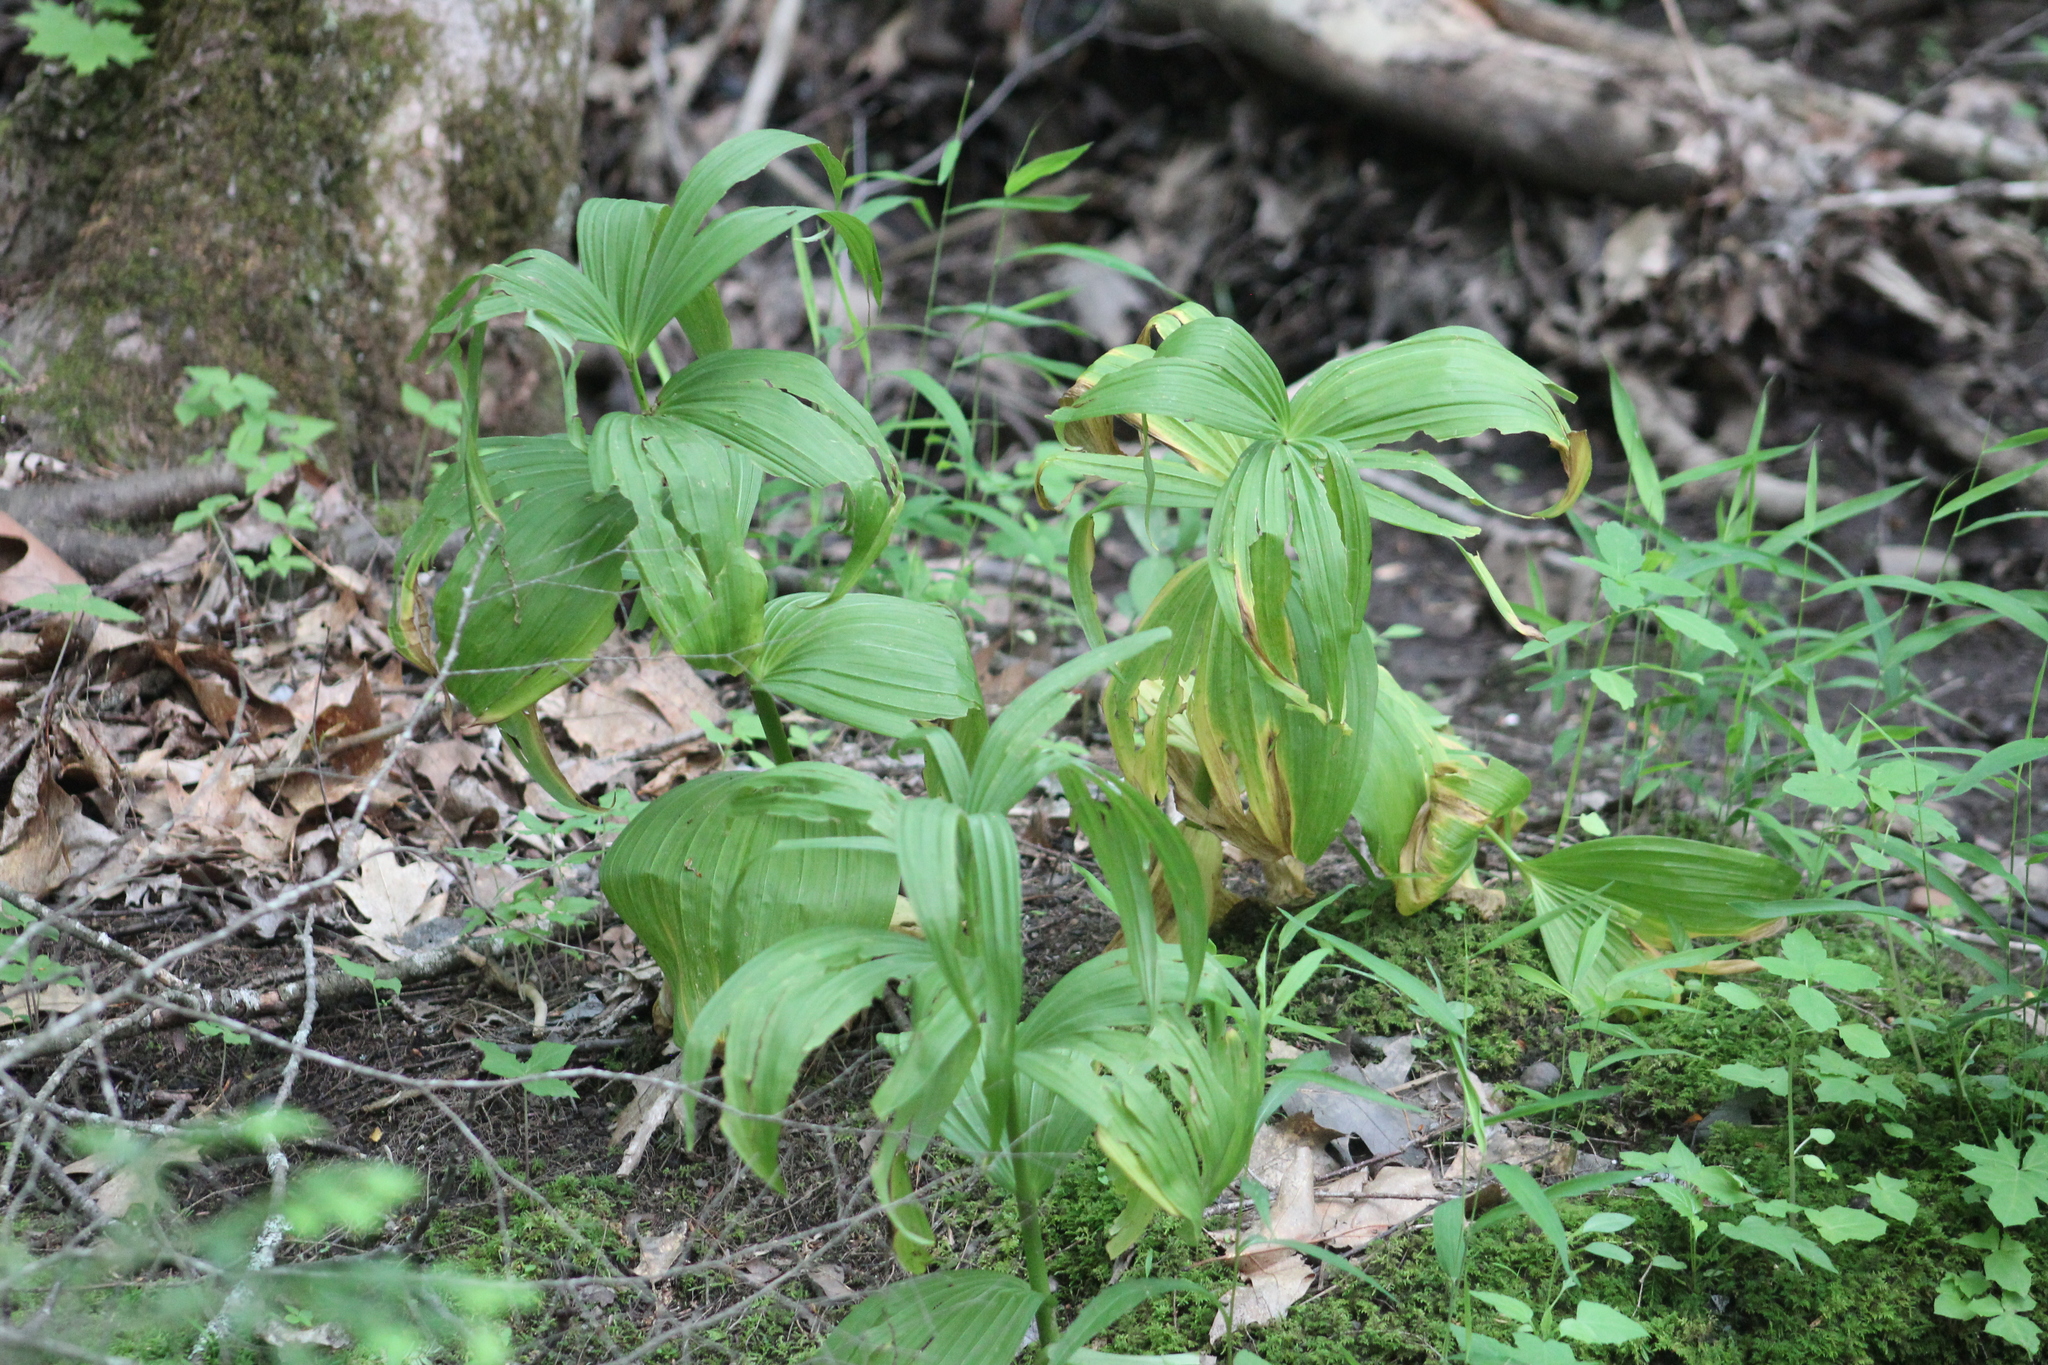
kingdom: Plantae
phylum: Tracheophyta
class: Liliopsida
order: Liliales
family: Melanthiaceae
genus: Veratrum
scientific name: Veratrum viride
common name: American false hellebore
